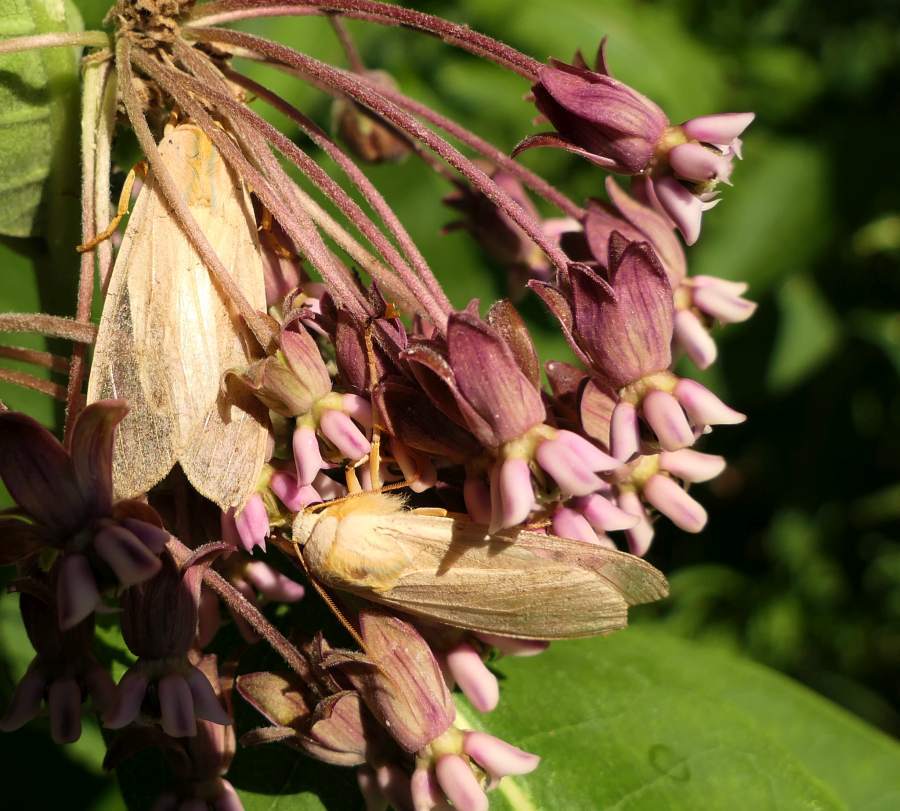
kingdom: Animalia
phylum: Arthropoda
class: Insecta
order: Lepidoptera
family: Erebidae
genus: Halysidota
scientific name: Halysidota tessellaris
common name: Banded tussock moth
